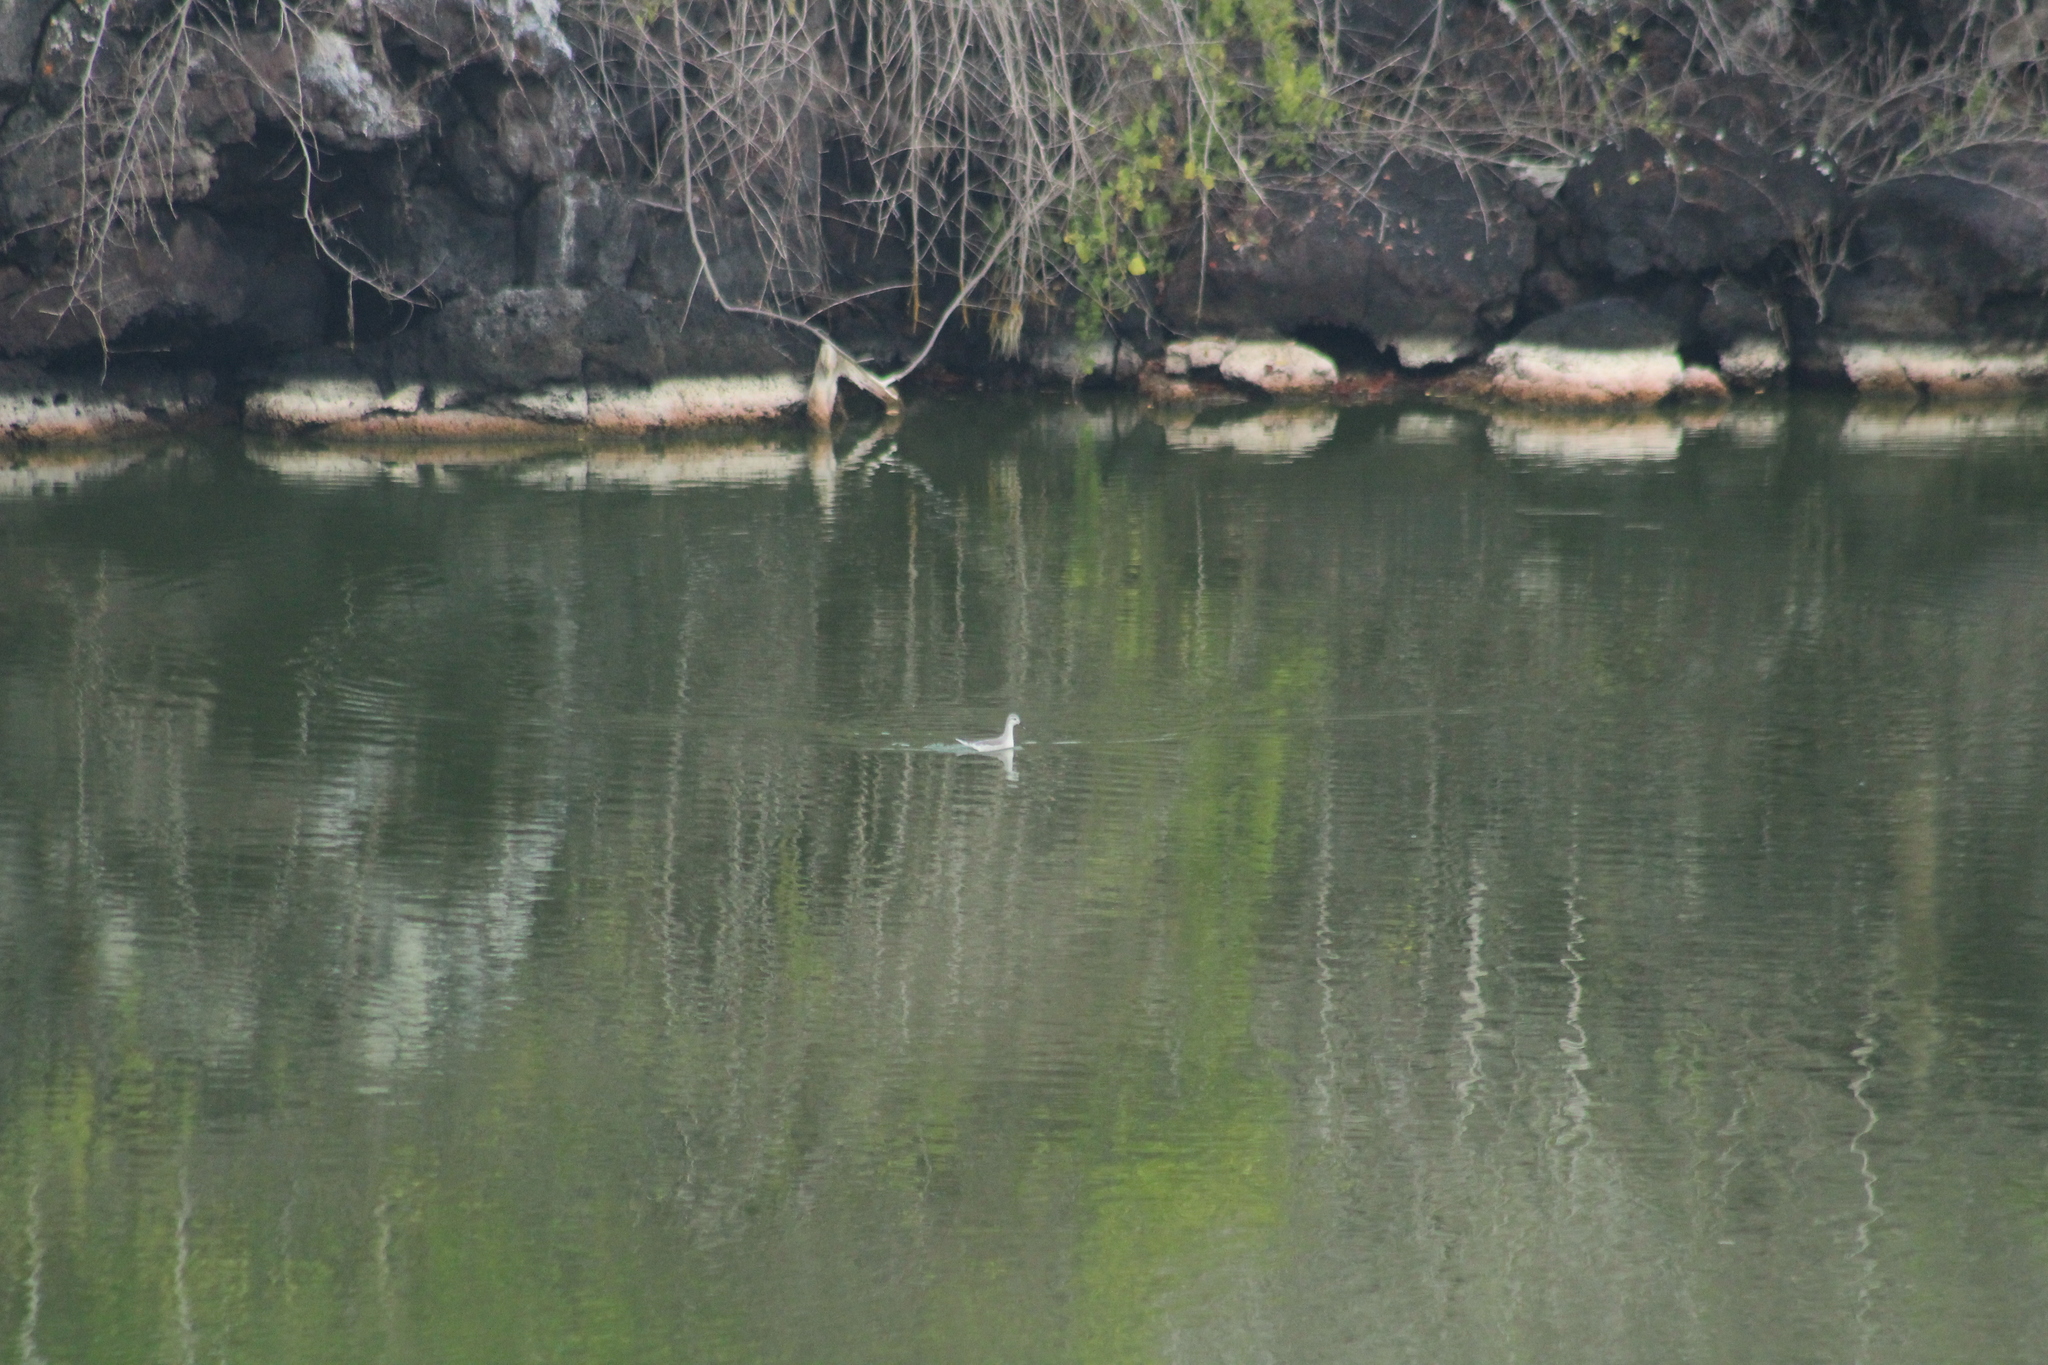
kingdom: Animalia
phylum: Chordata
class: Aves
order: Charadriiformes
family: Scolopacidae
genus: Phalaropus
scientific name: Phalaropus tricolor
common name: Wilson's phalarope
